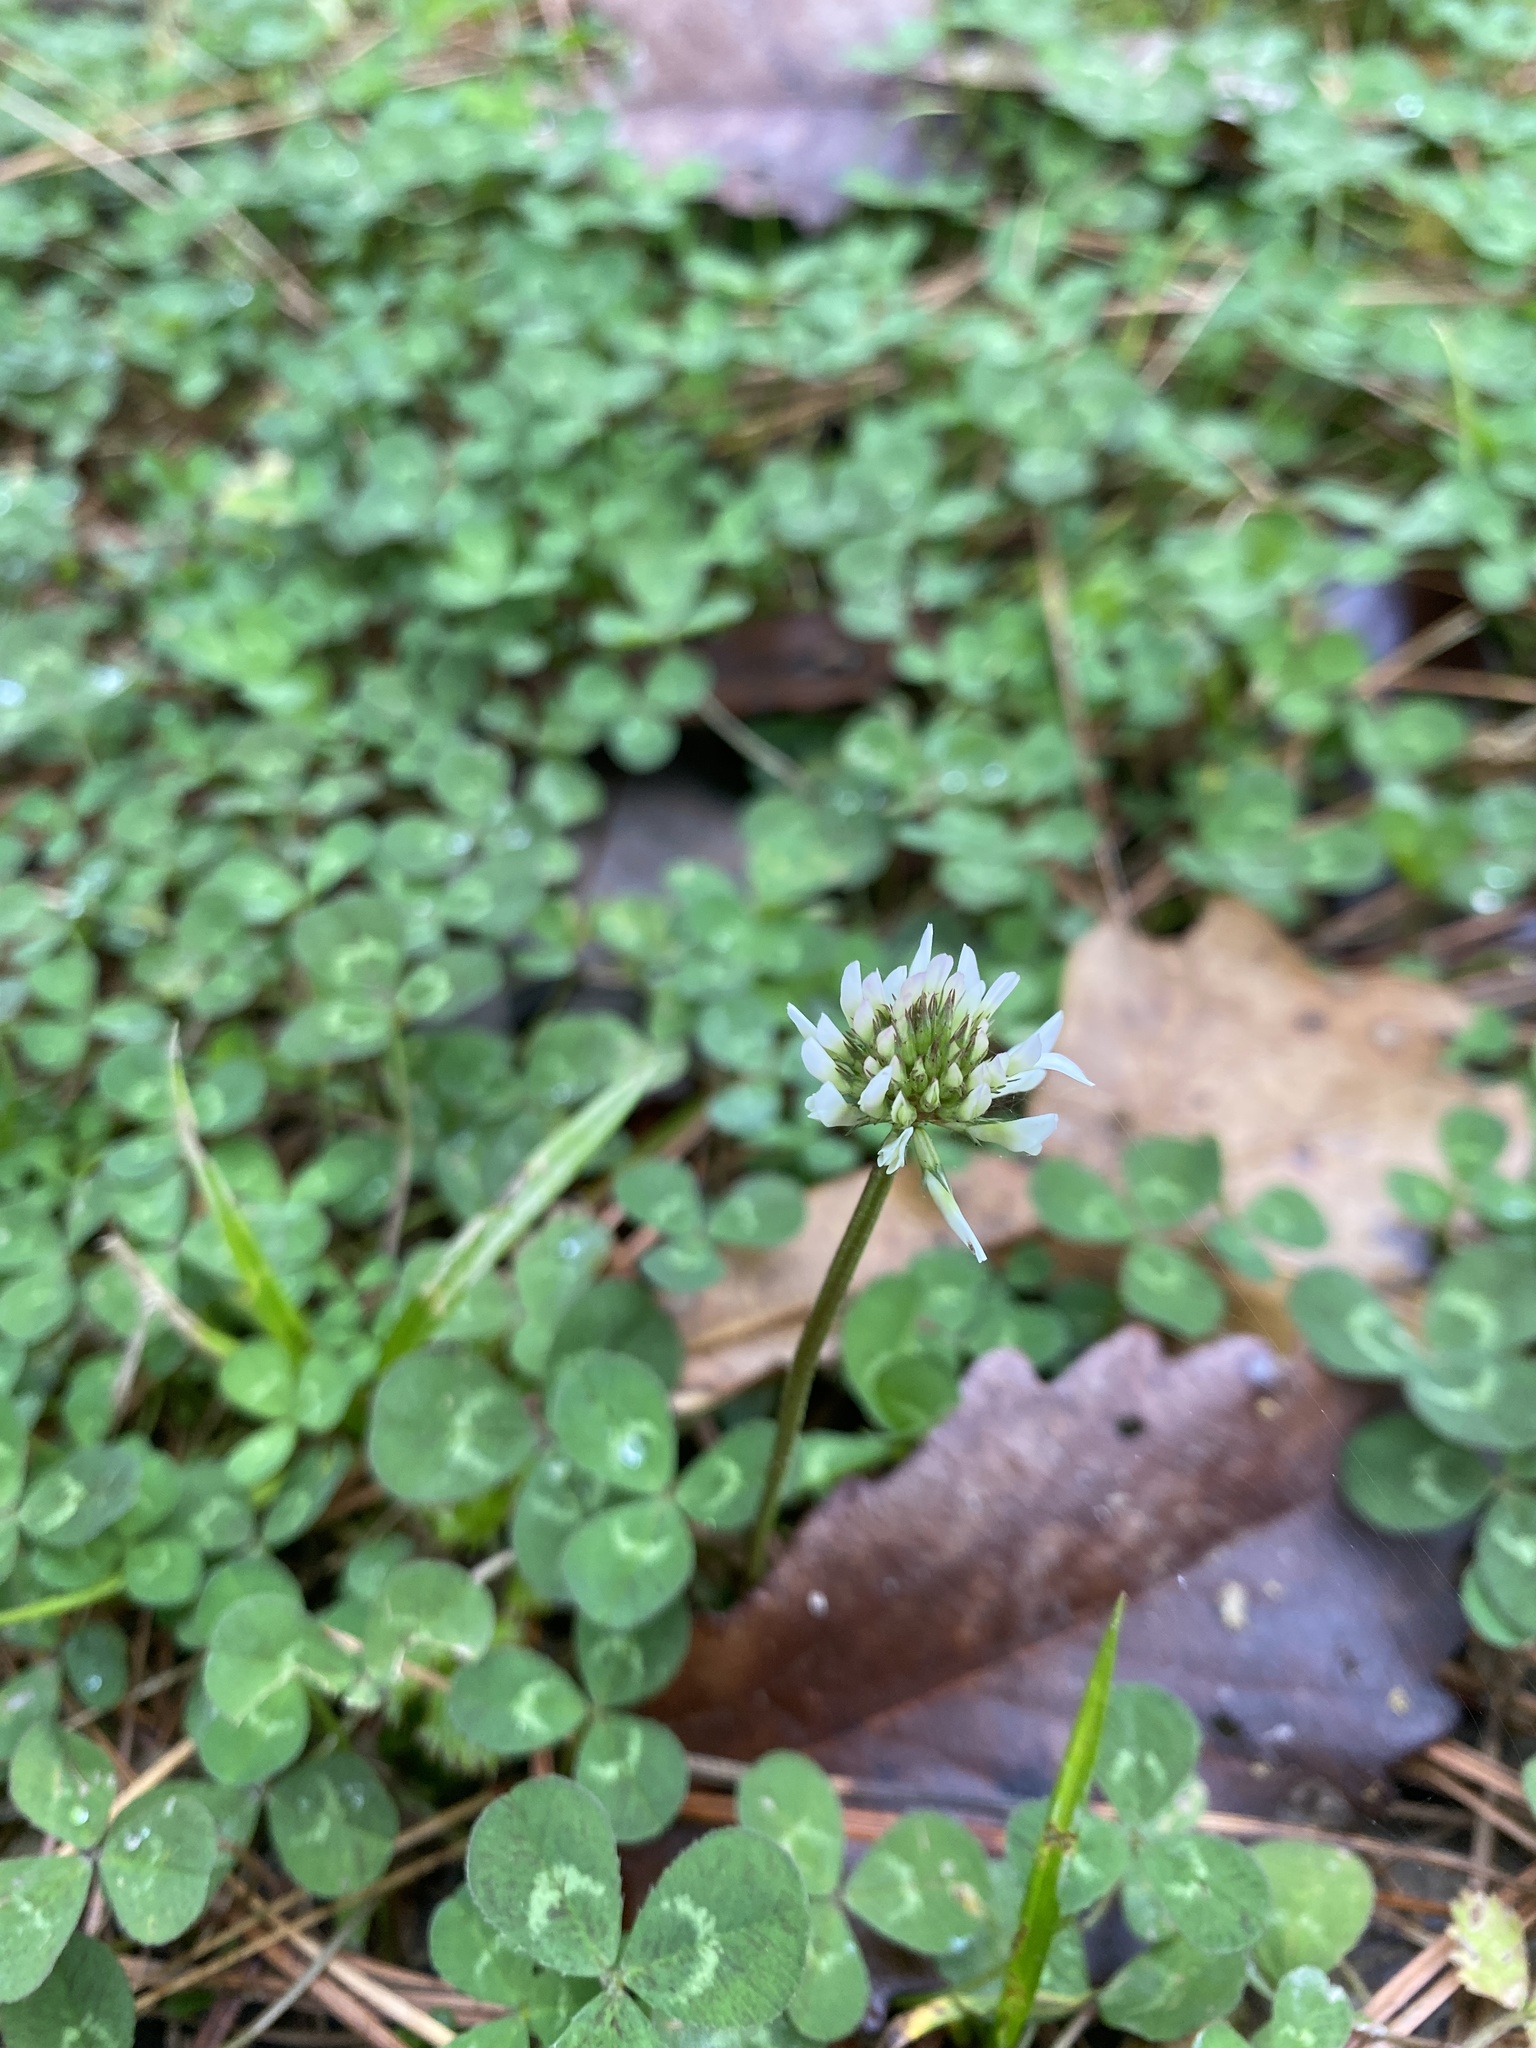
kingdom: Plantae
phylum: Tracheophyta
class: Magnoliopsida
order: Fabales
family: Fabaceae
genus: Trifolium
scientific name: Trifolium repens
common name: White clover
